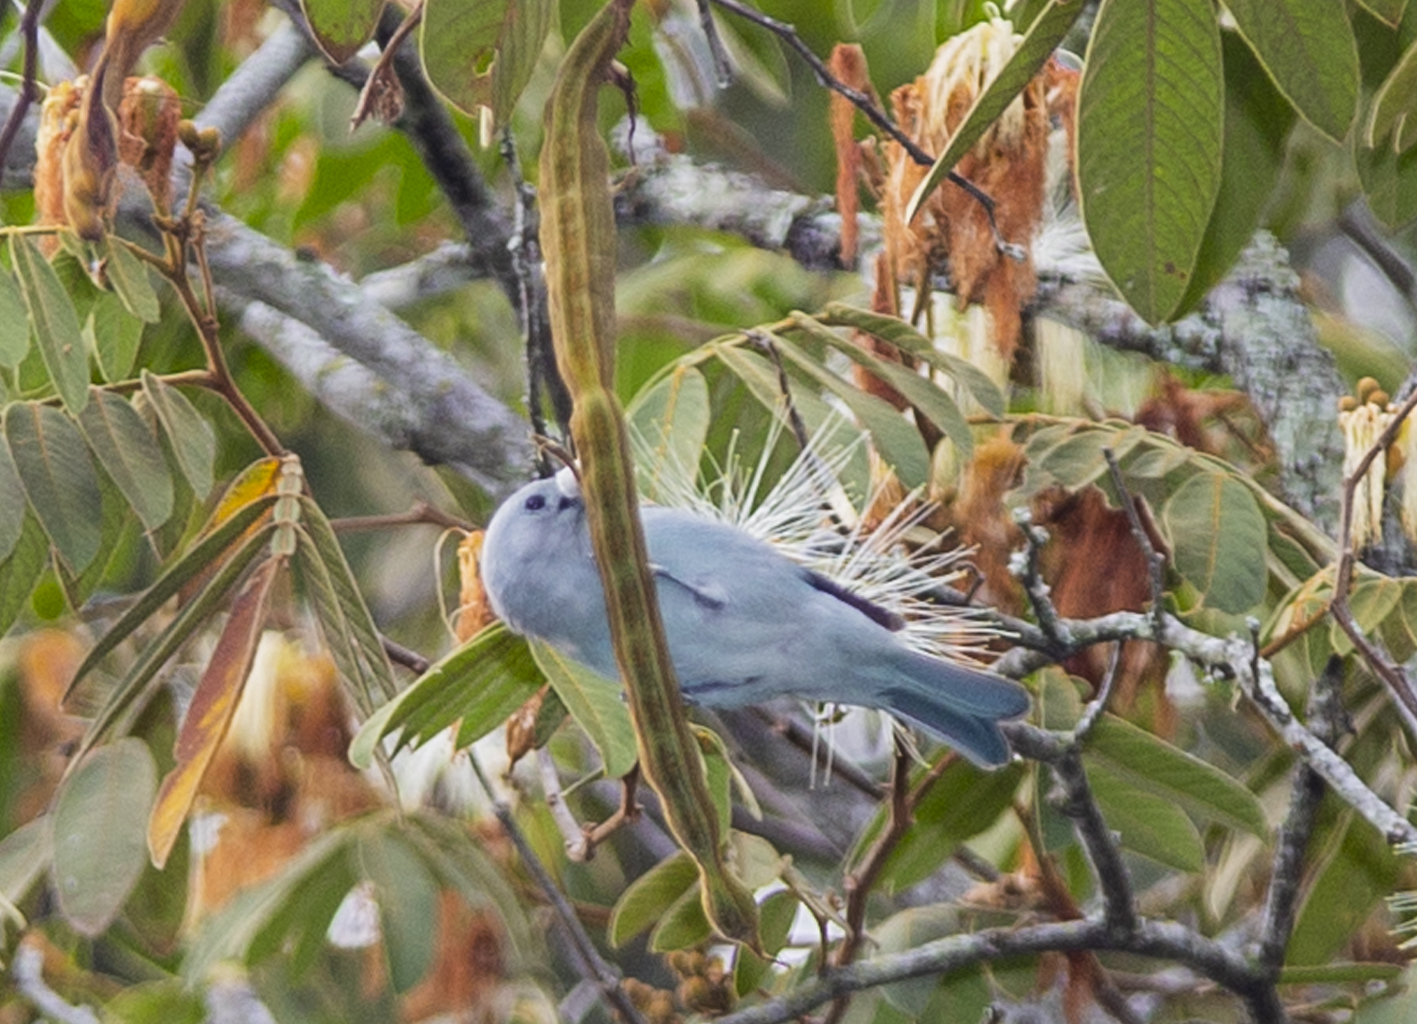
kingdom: Animalia
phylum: Chordata
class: Aves
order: Passeriformes
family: Thraupidae
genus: Thraupis
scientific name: Thraupis episcopus
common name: Blue-grey tanager
